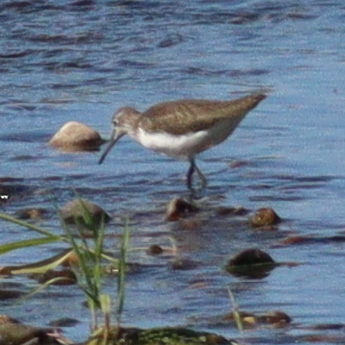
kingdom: Animalia
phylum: Chordata
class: Aves
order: Charadriiformes
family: Scolopacidae
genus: Tringa
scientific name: Tringa ochropus
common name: Green sandpiper
